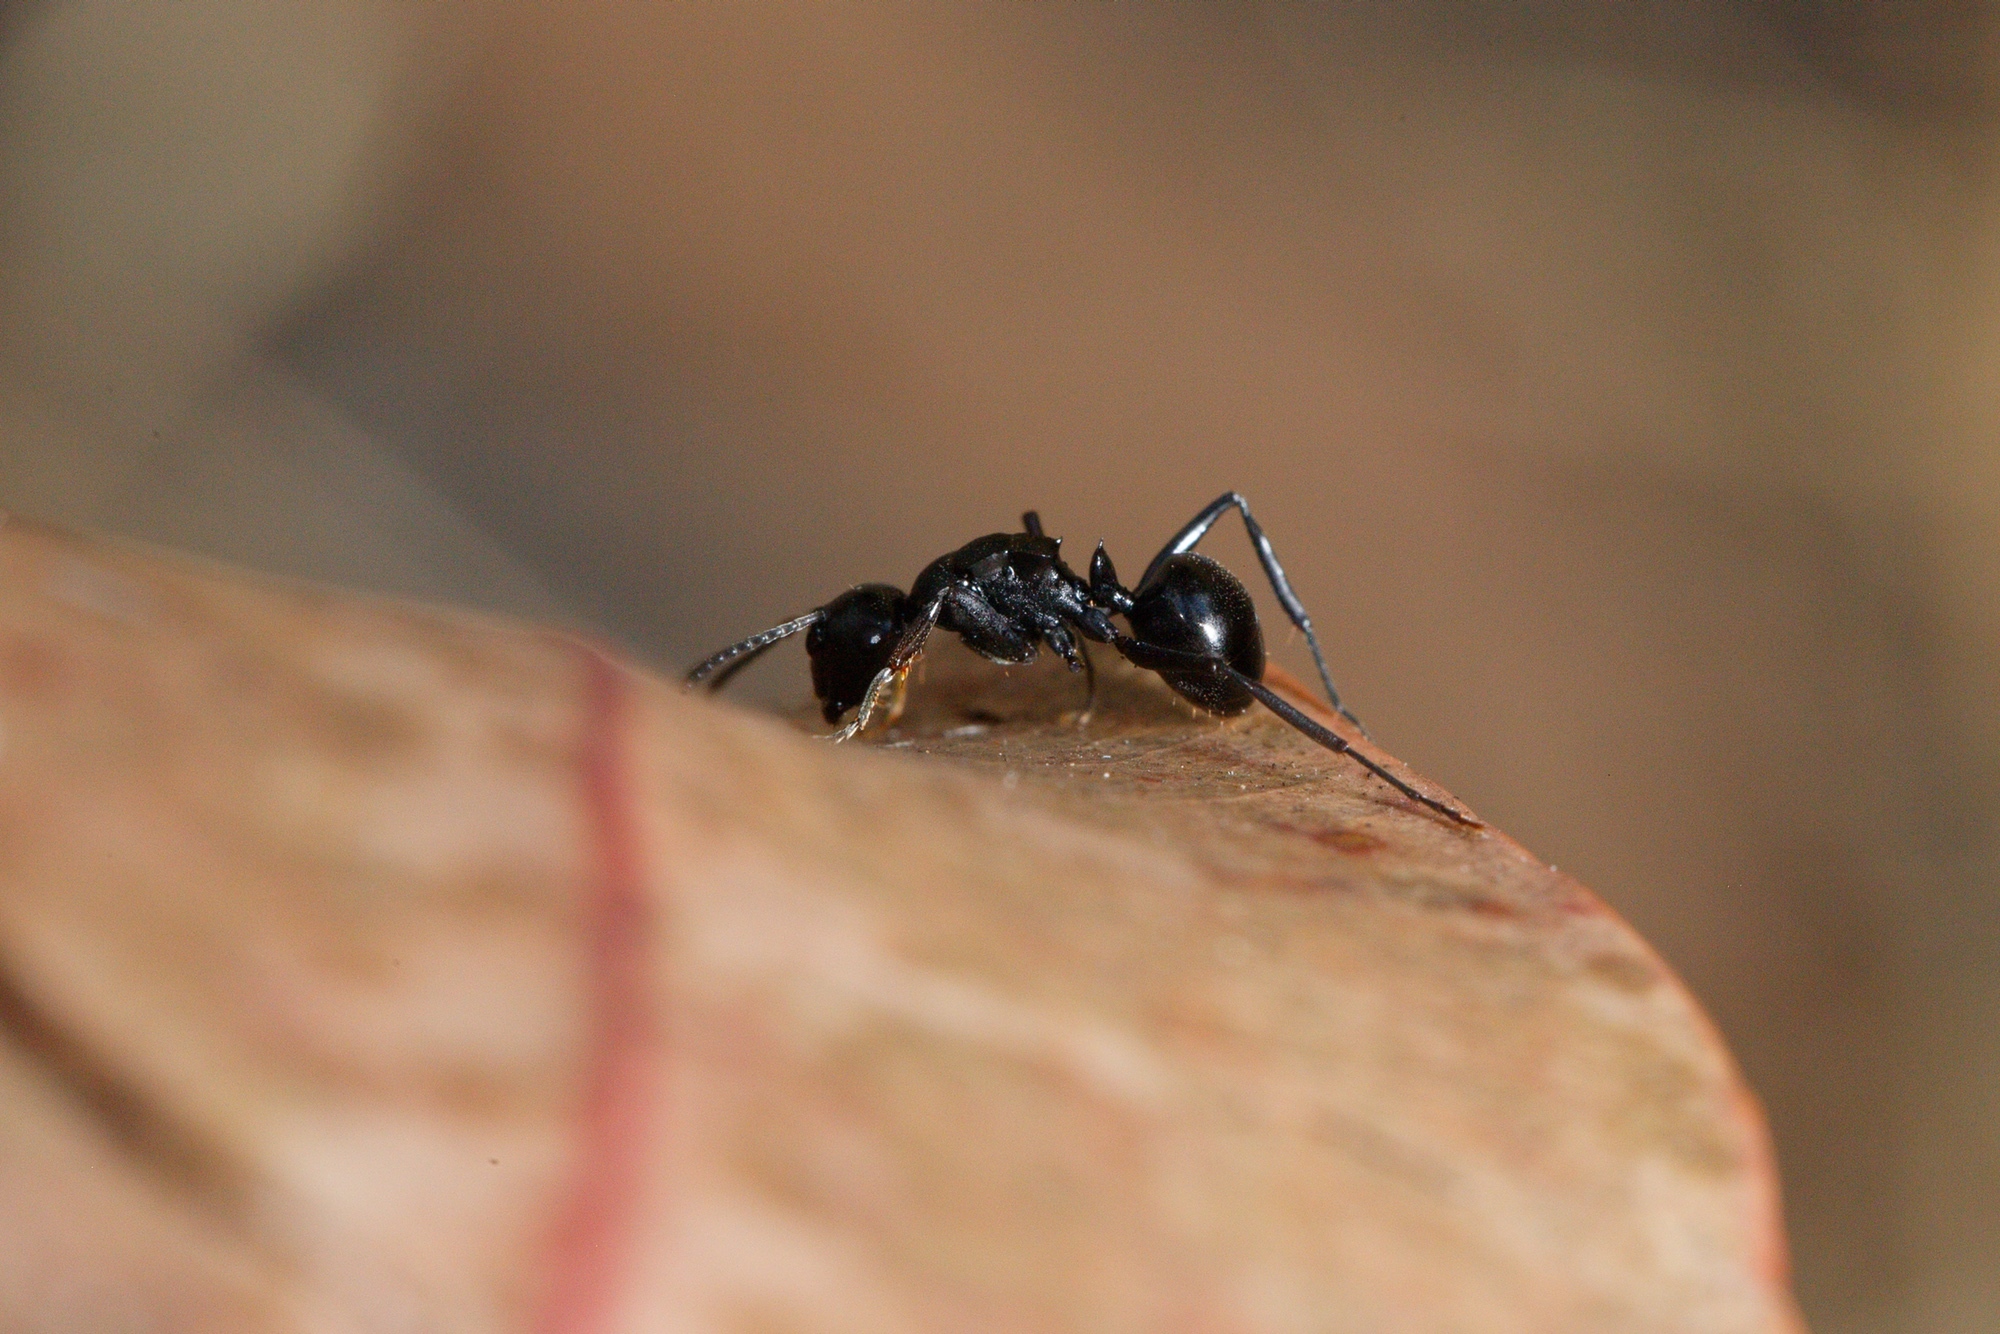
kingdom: Animalia
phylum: Arthropoda
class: Insecta
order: Hymenoptera
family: Formicidae
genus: Polyrhachis
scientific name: Polyrhachis patiens
